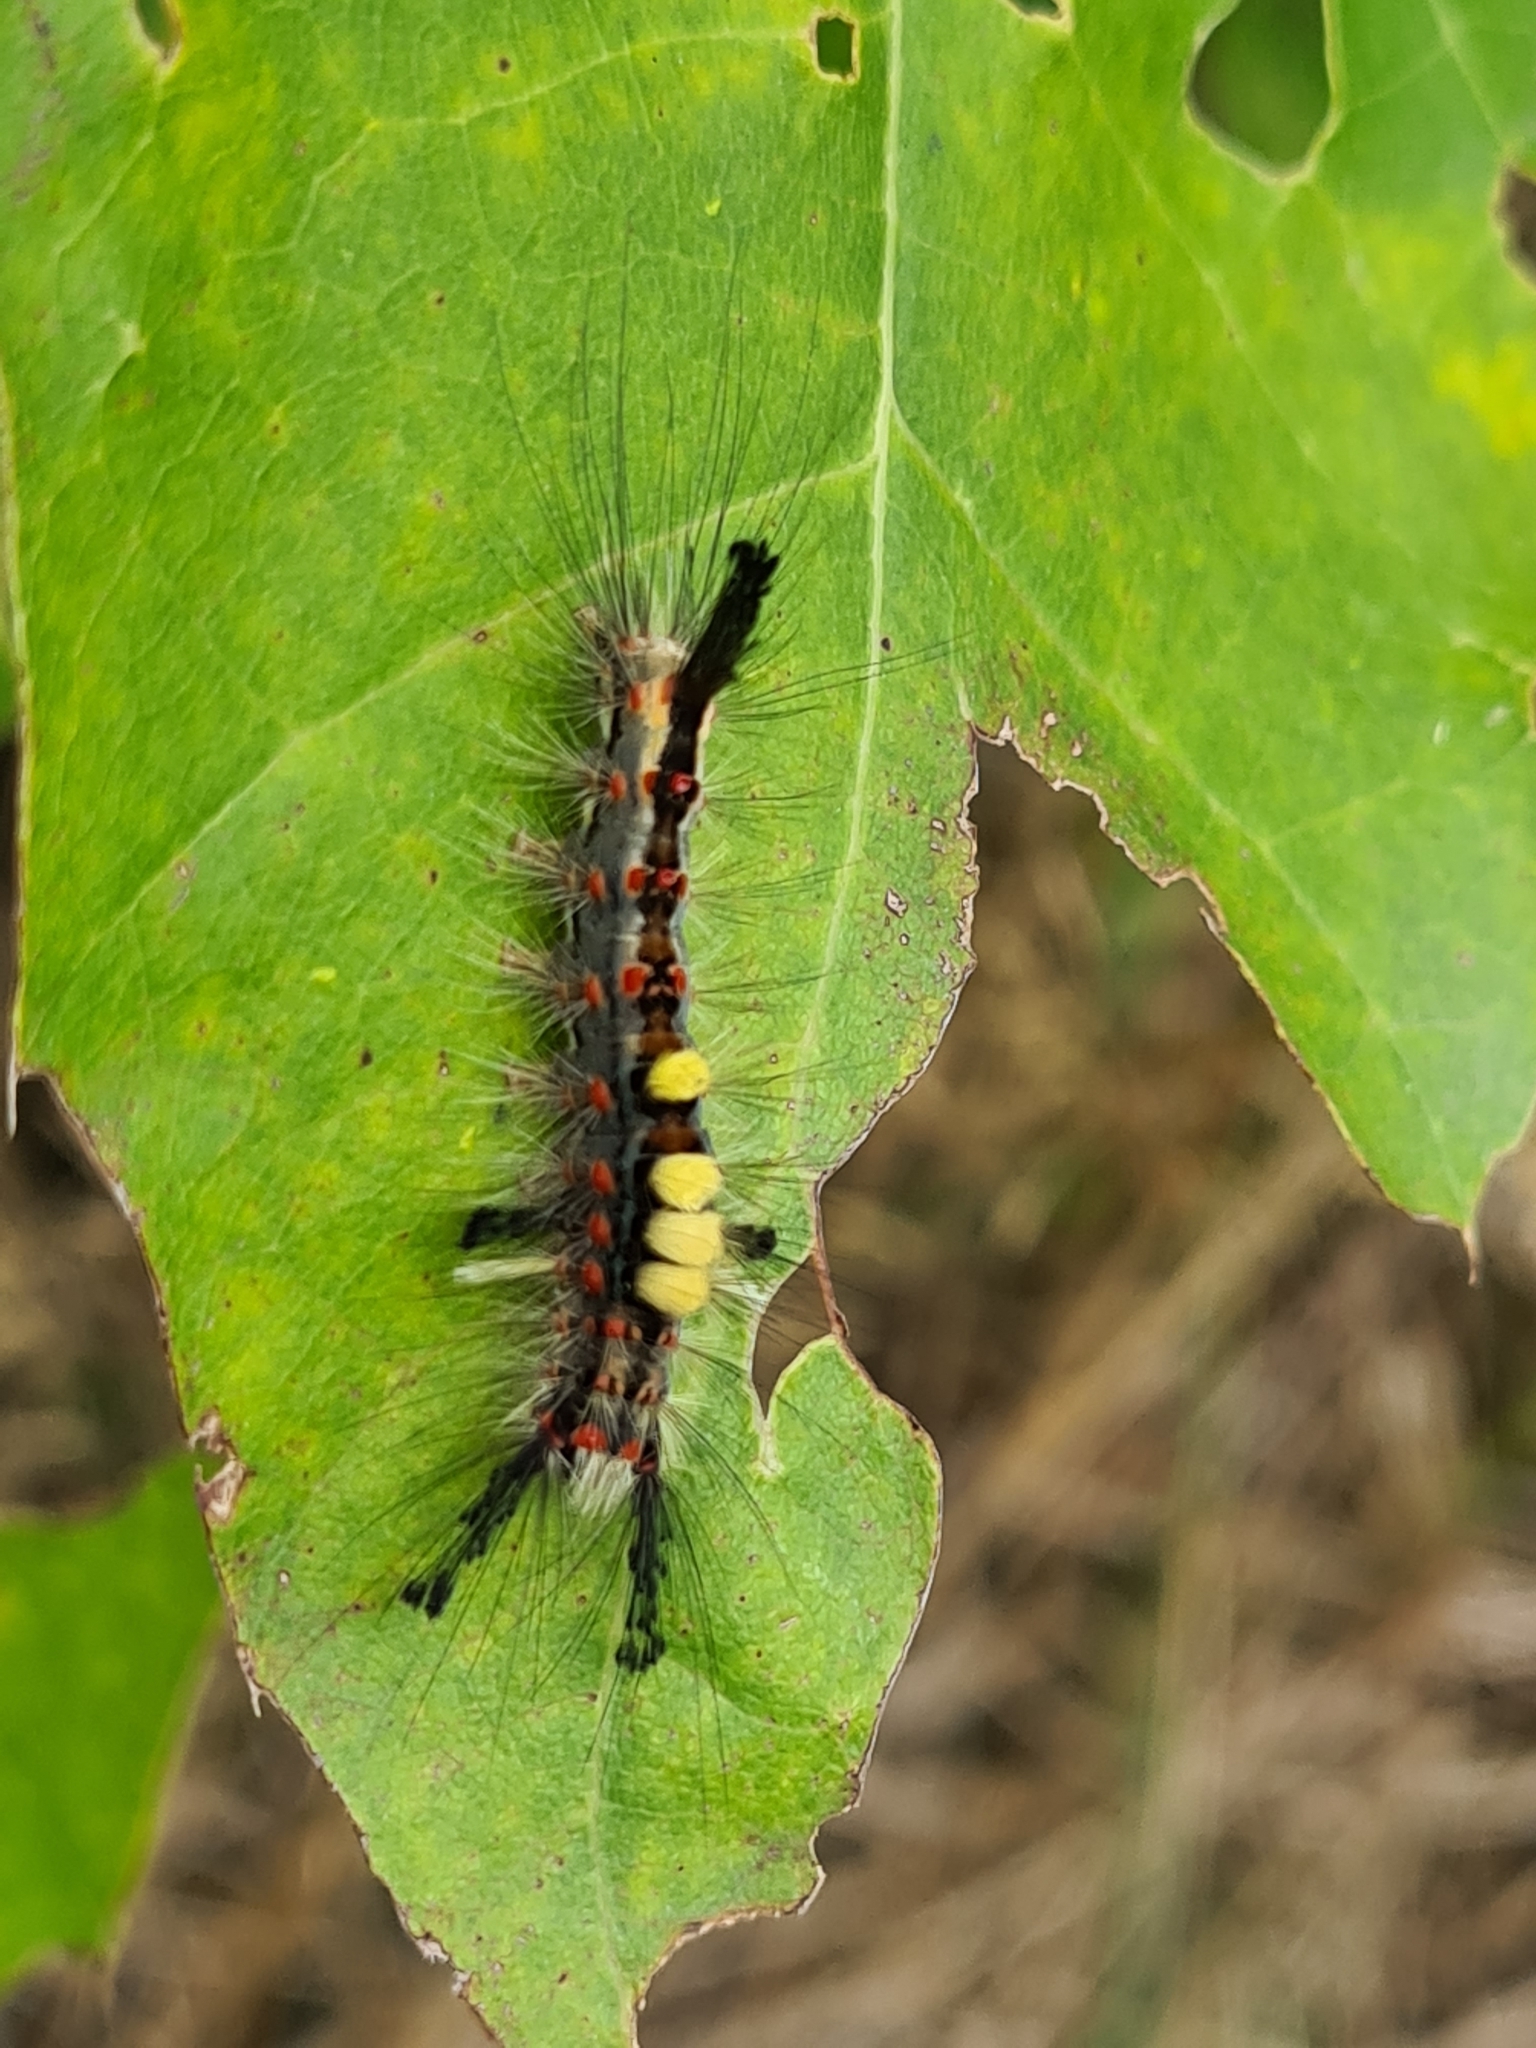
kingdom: Animalia
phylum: Arthropoda
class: Insecta
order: Lepidoptera
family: Erebidae
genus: Orgyia
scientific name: Orgyia antiqua
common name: Vapourer
